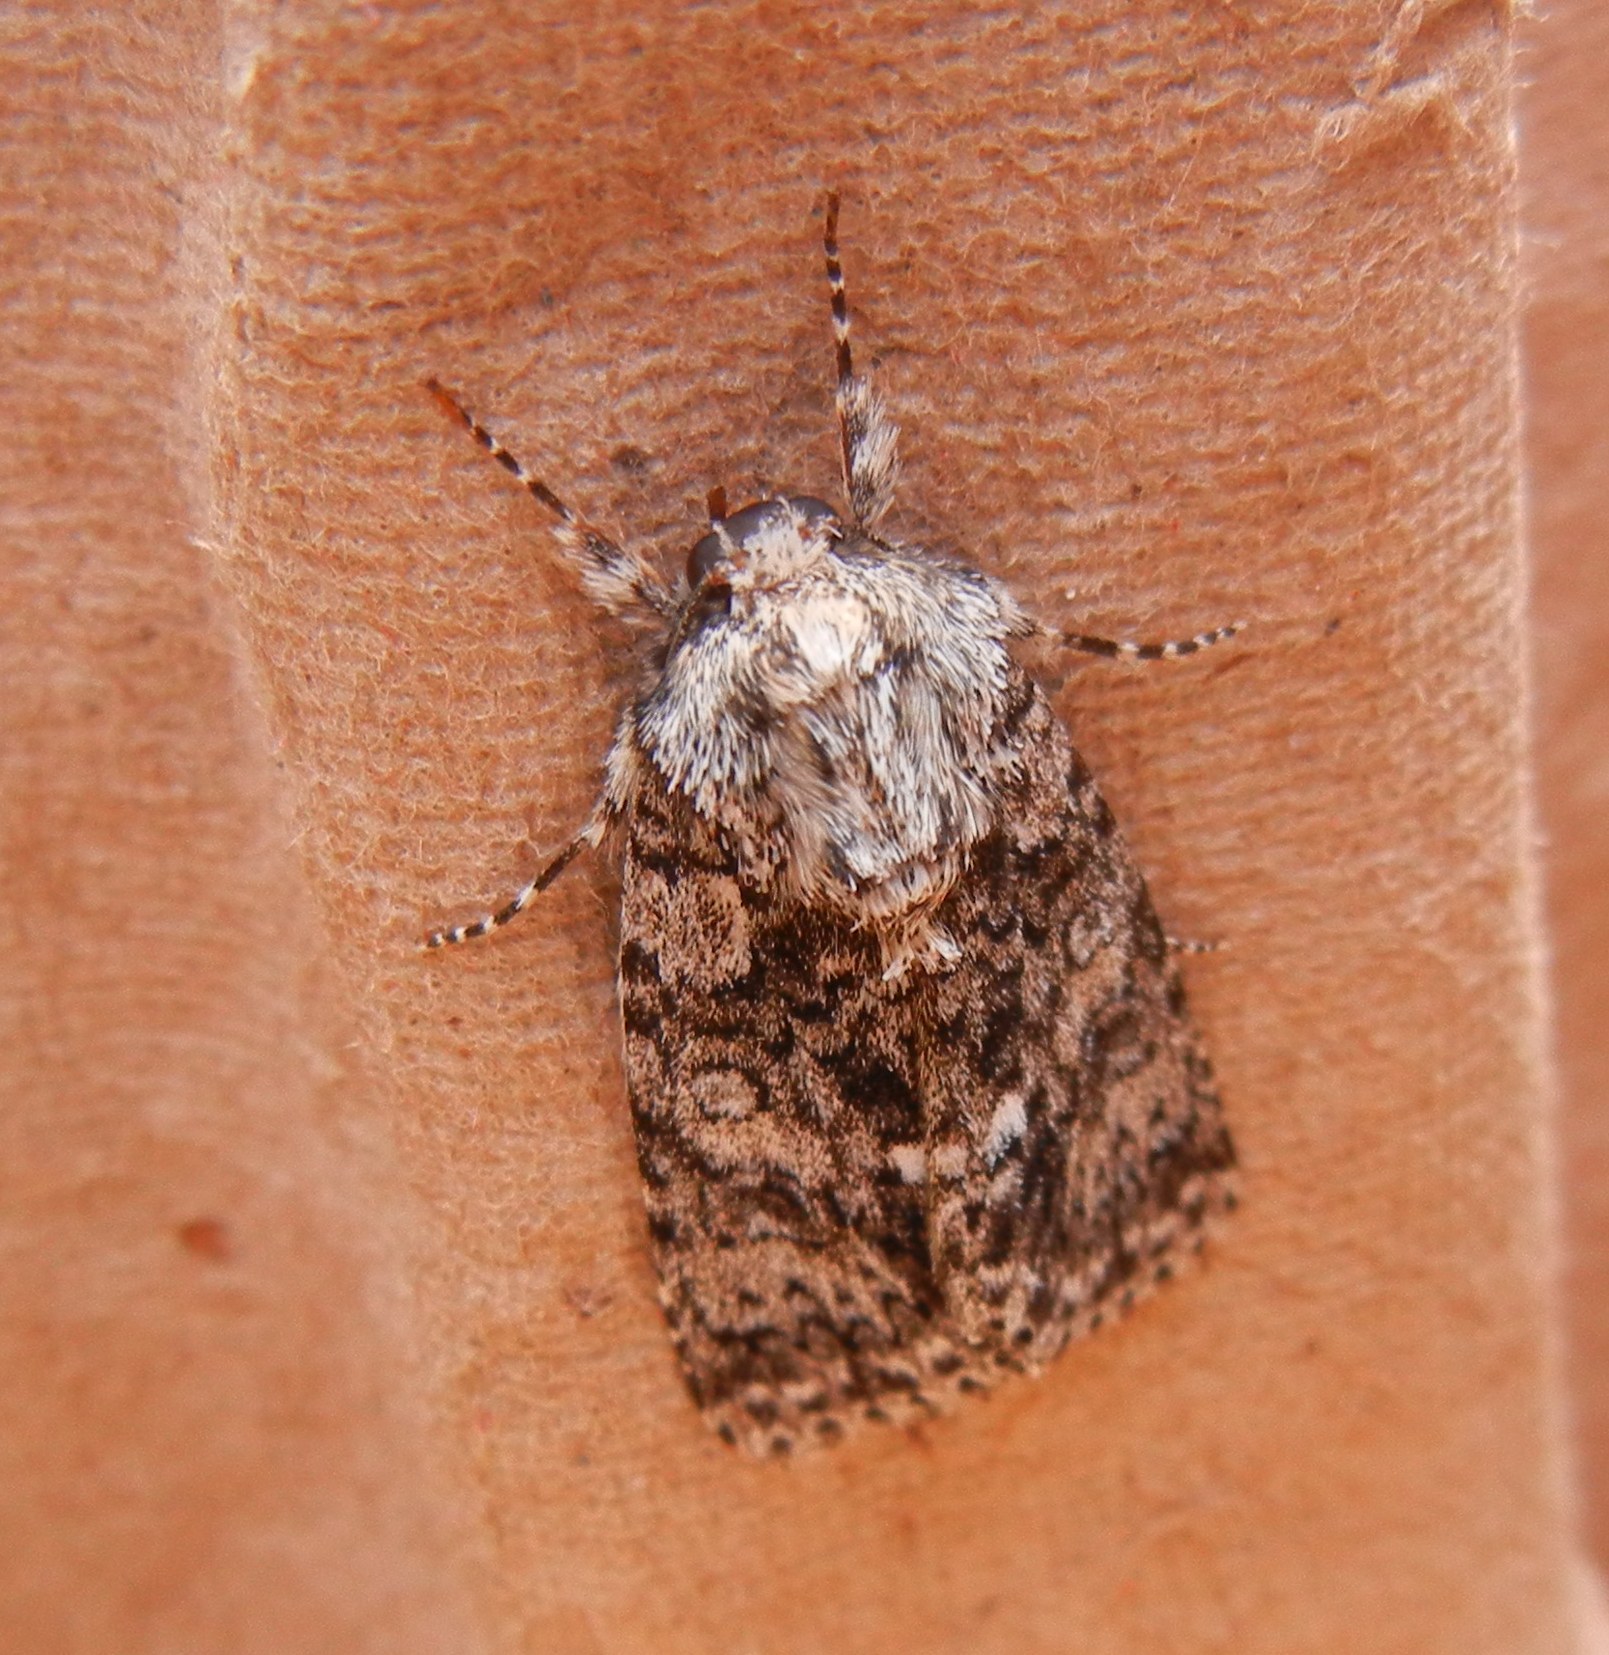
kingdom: Animalia
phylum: Arthropoda
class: Insecta
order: Lepidoptera
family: Noctuidae
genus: Acronicta
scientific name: Acronicta rumicis
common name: Knot grass
